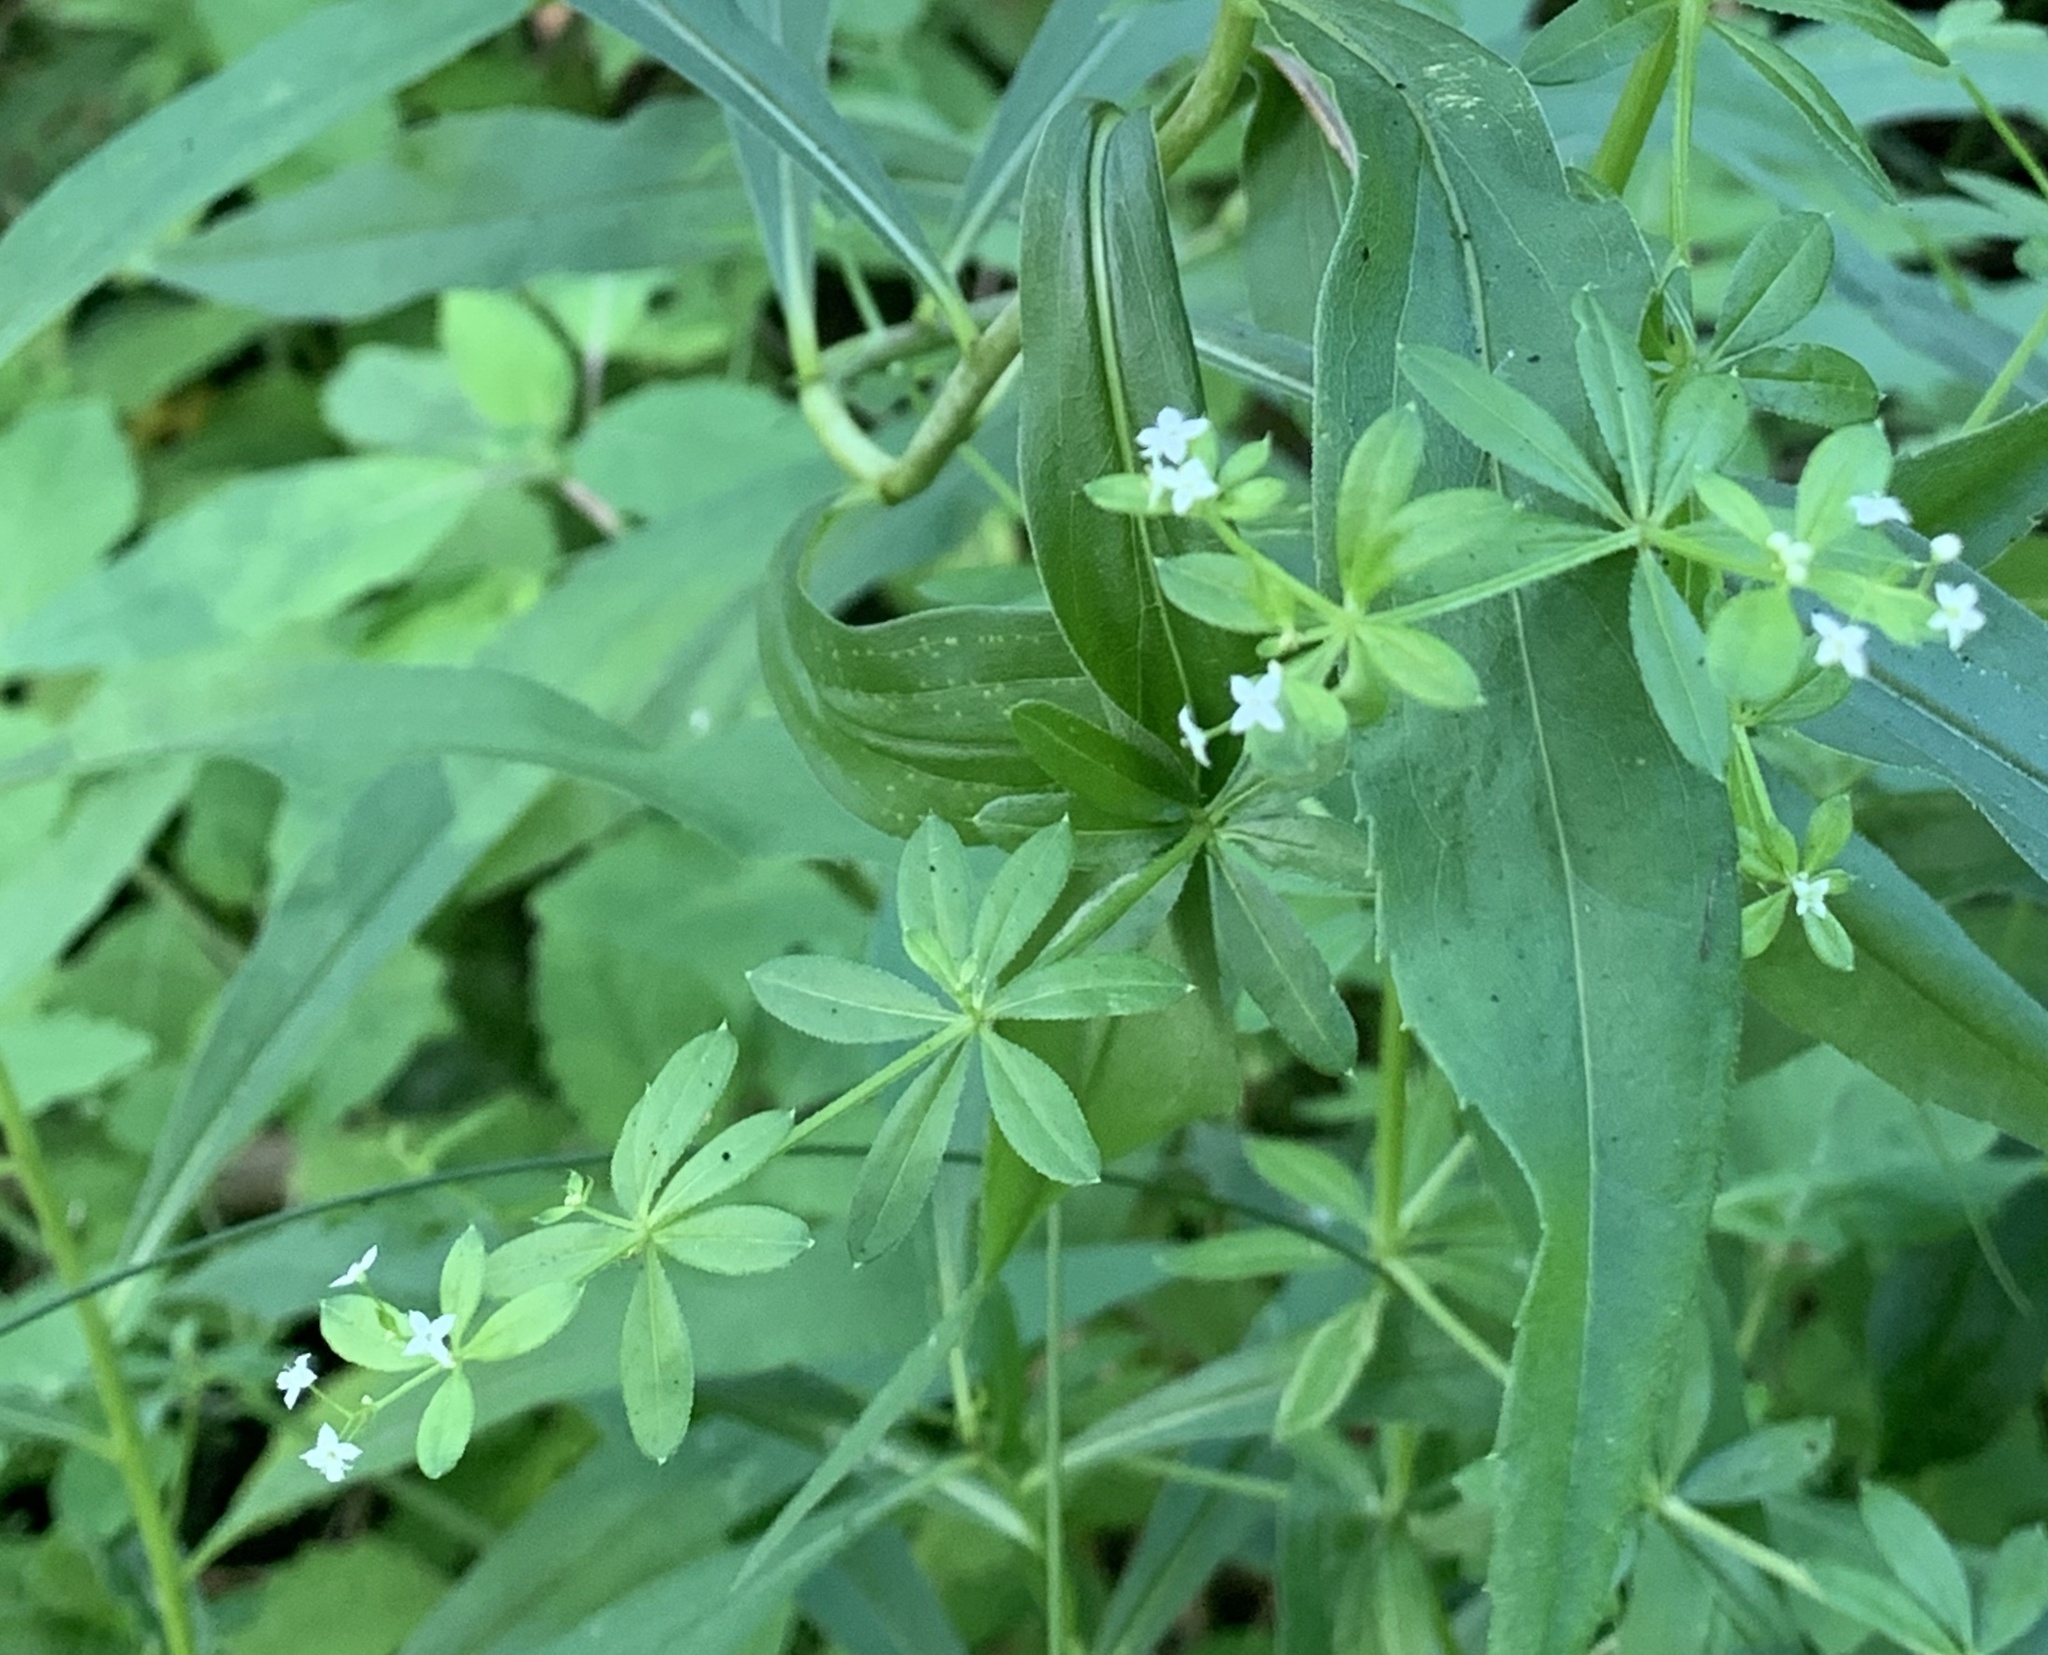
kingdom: Plantae
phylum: Tracheophyta
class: Magnoliopsida
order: Gentianales
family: Rubiaceae
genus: Galium
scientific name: Galium asprellum
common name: Rough bedstraw
